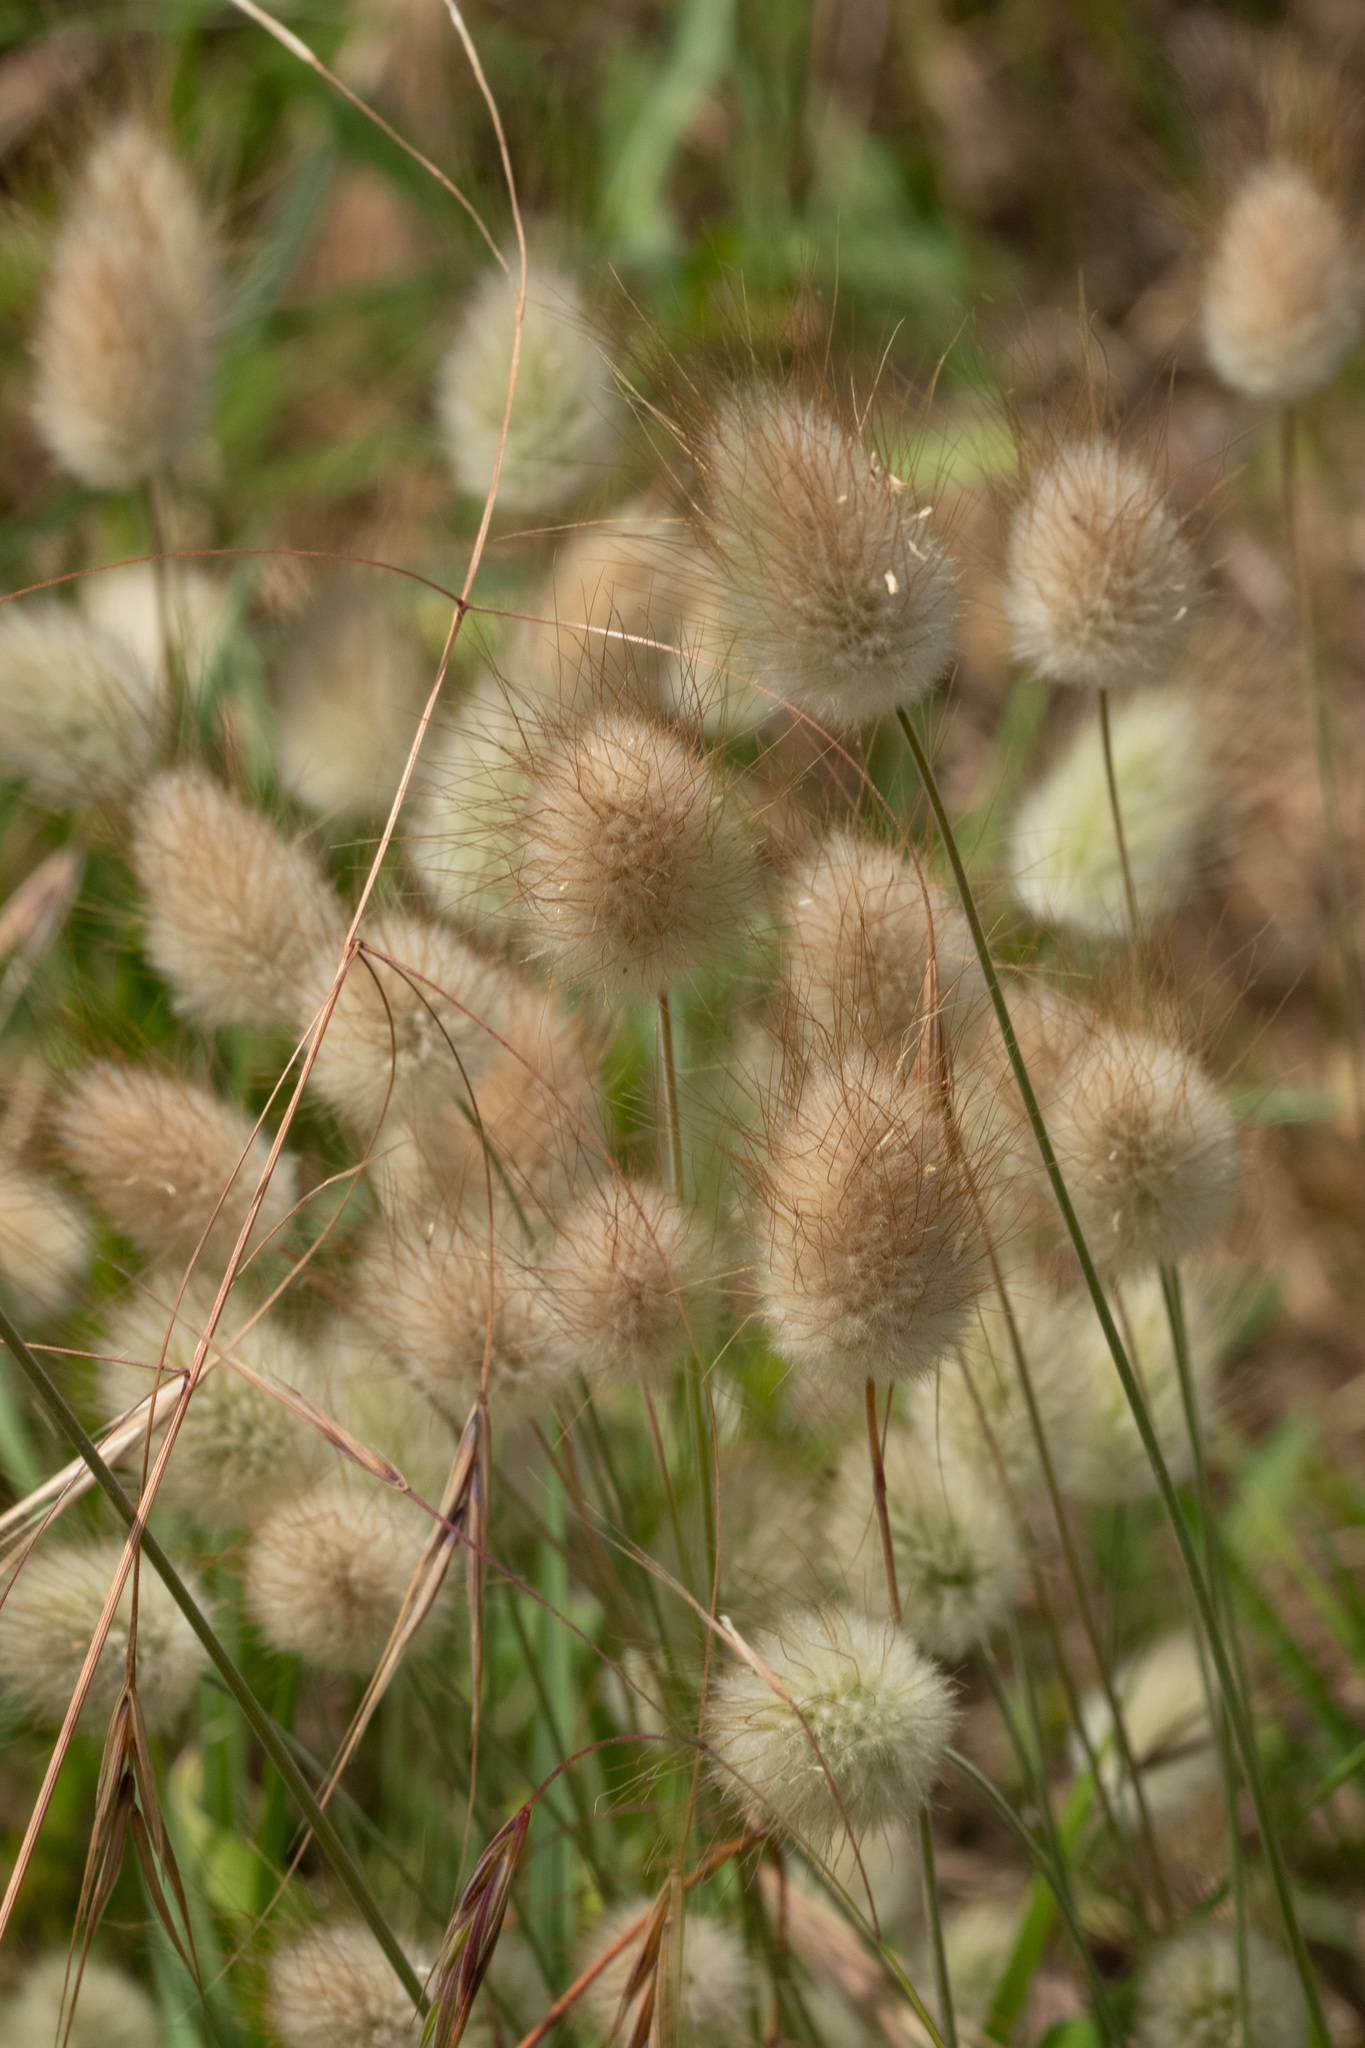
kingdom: Plantae
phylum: Tracheophyta
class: Liliopsida
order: Poales
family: Poaceae
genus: Lagurus
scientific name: Lagurus ovatus
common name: Hare's-tail
